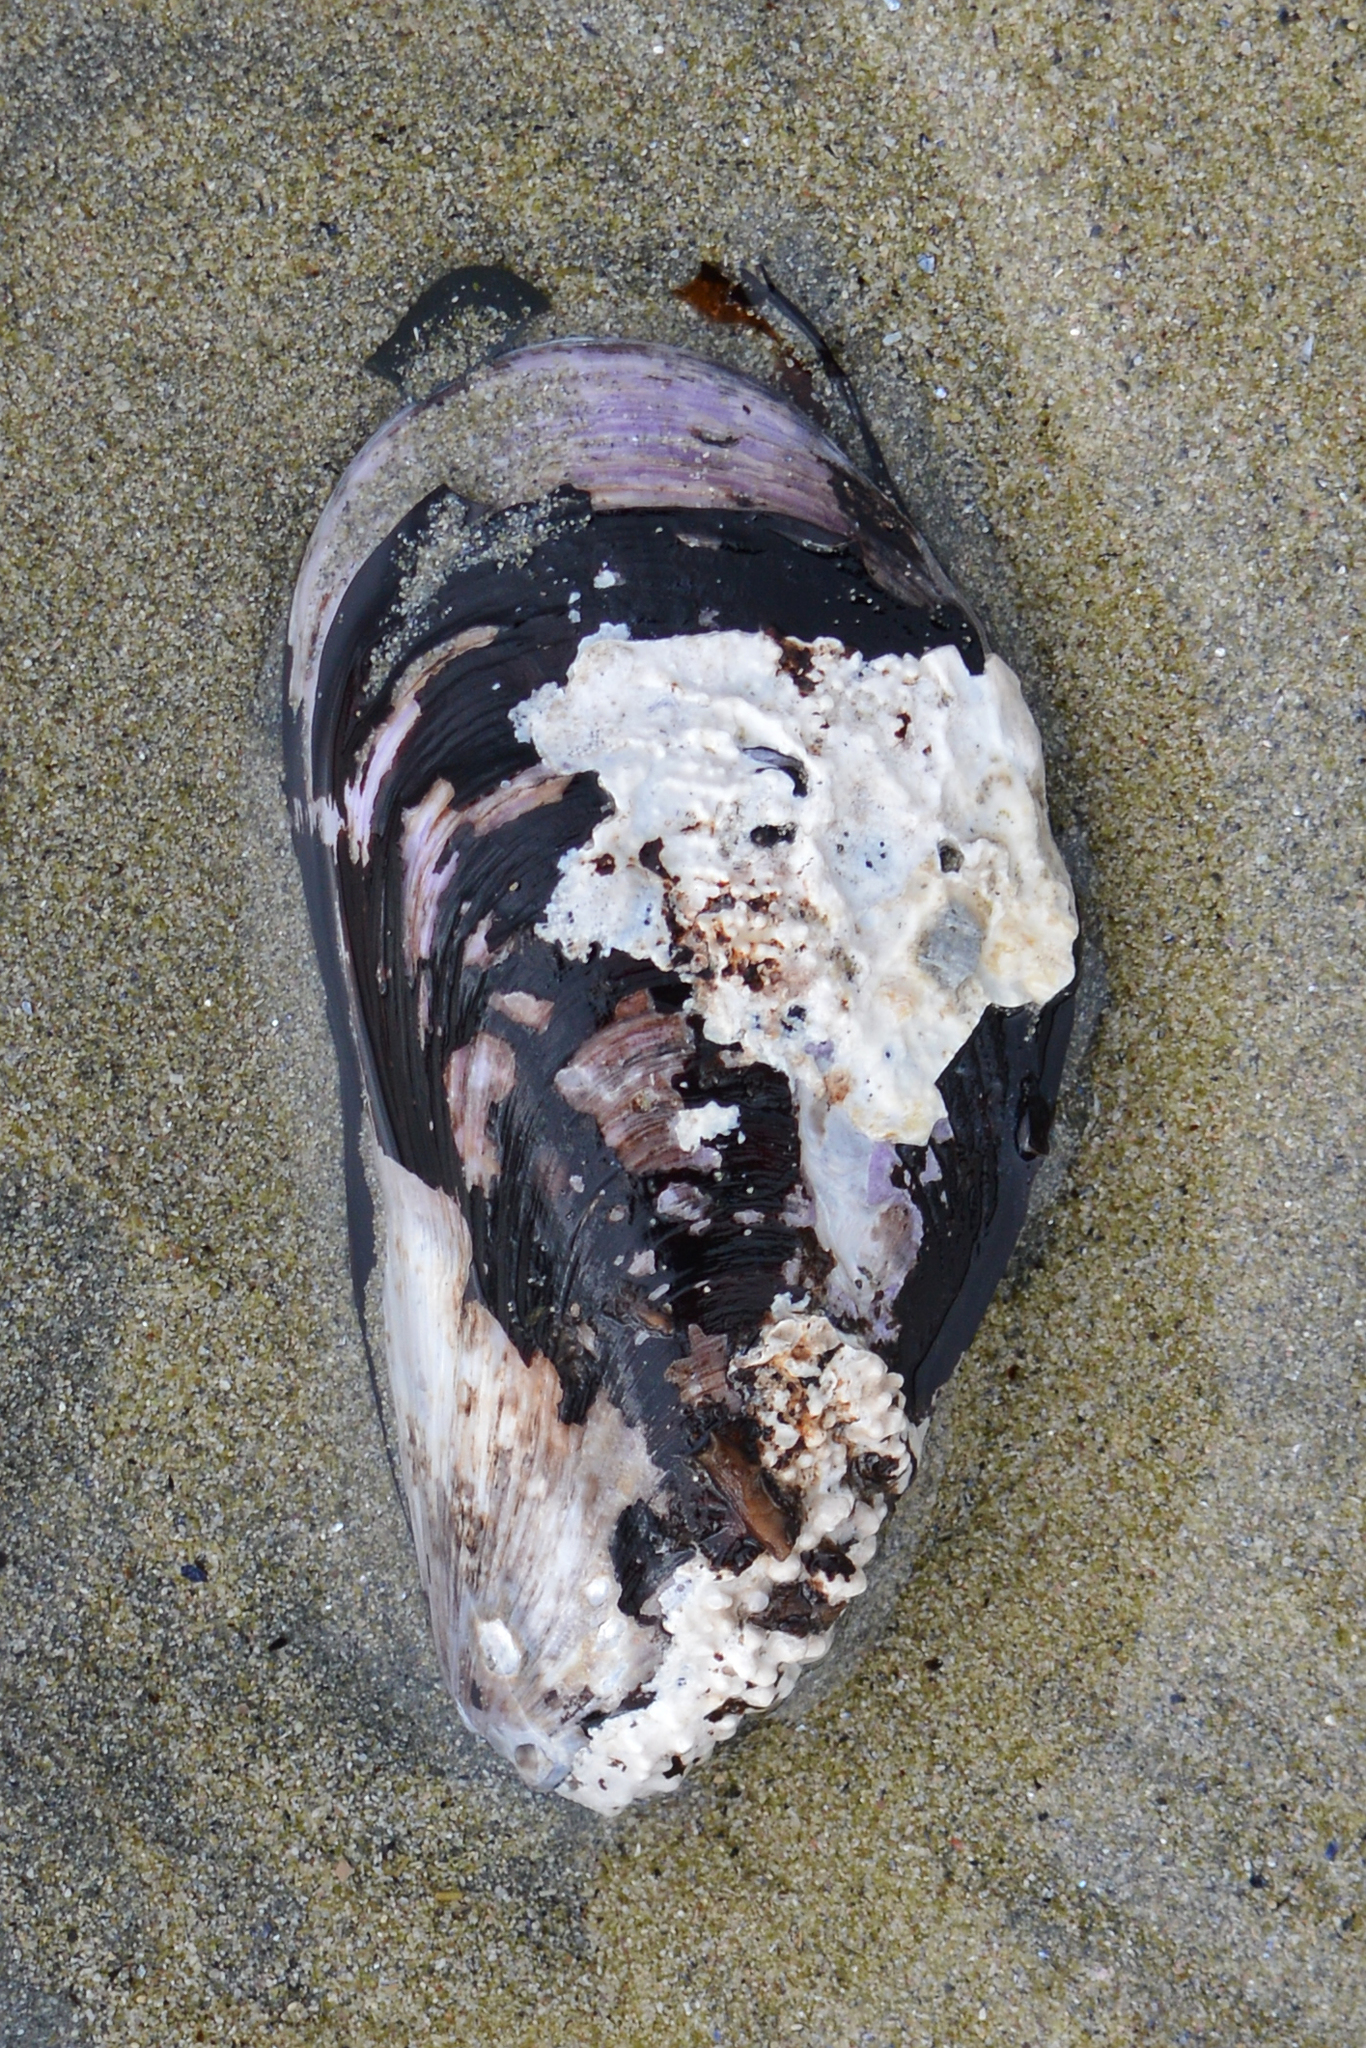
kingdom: Animalia
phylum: Mollusca
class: Bivalvia
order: Mytilida
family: Mytilidae
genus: Modiolus
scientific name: Modiolus modiolus
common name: Horse-mussel
